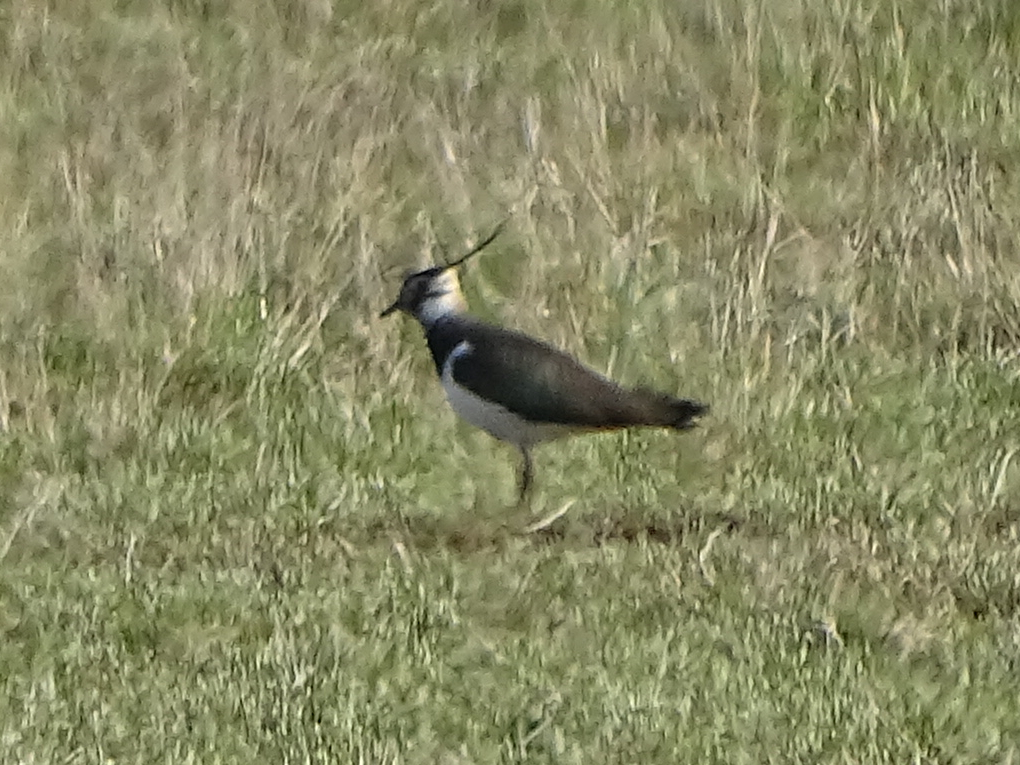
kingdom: Animalia
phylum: Chordata
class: Aves
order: Charadriiformes
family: Charadriidae
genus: Vanellus
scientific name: Vanellus vanellus
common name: Northern lapwing
